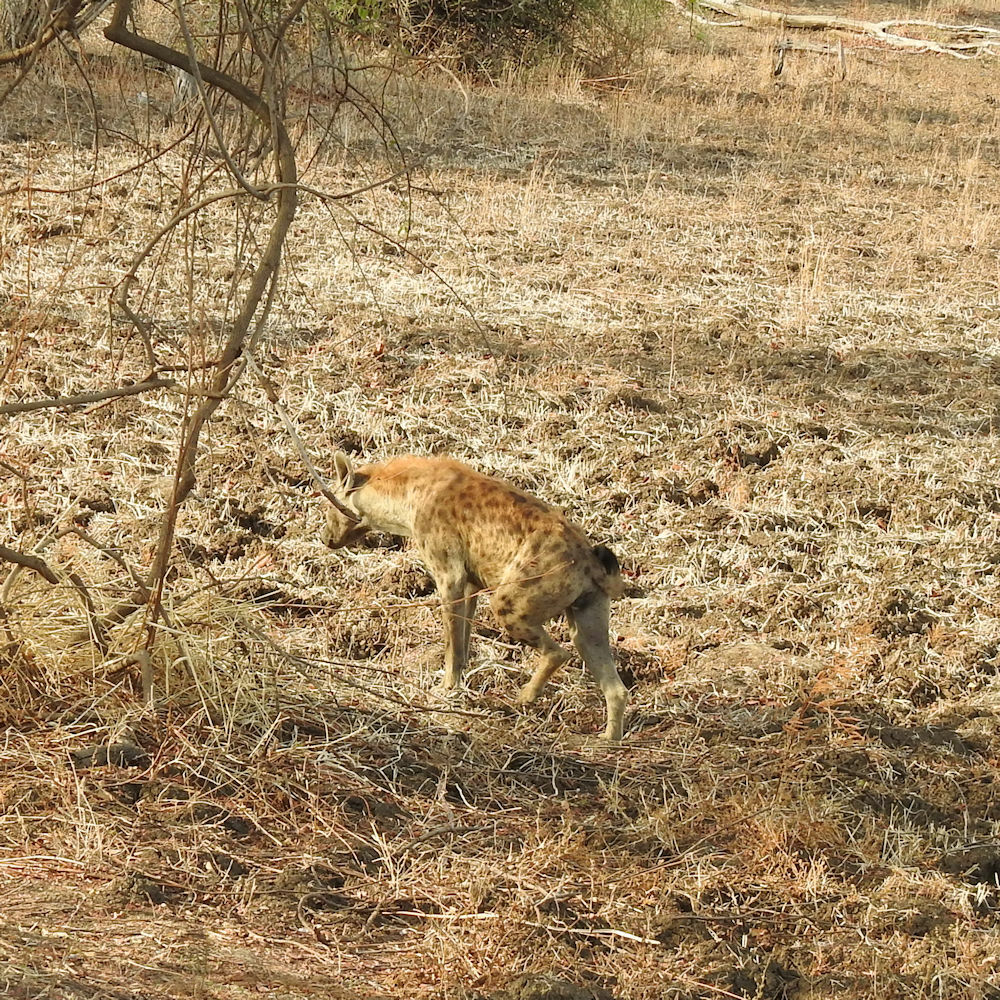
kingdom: Animalia
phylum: Chordata
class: Mammalia
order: Carnivora
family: Hyaenidae
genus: Crocuta
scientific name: Crocuta crocuta
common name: Spotted hyaena
